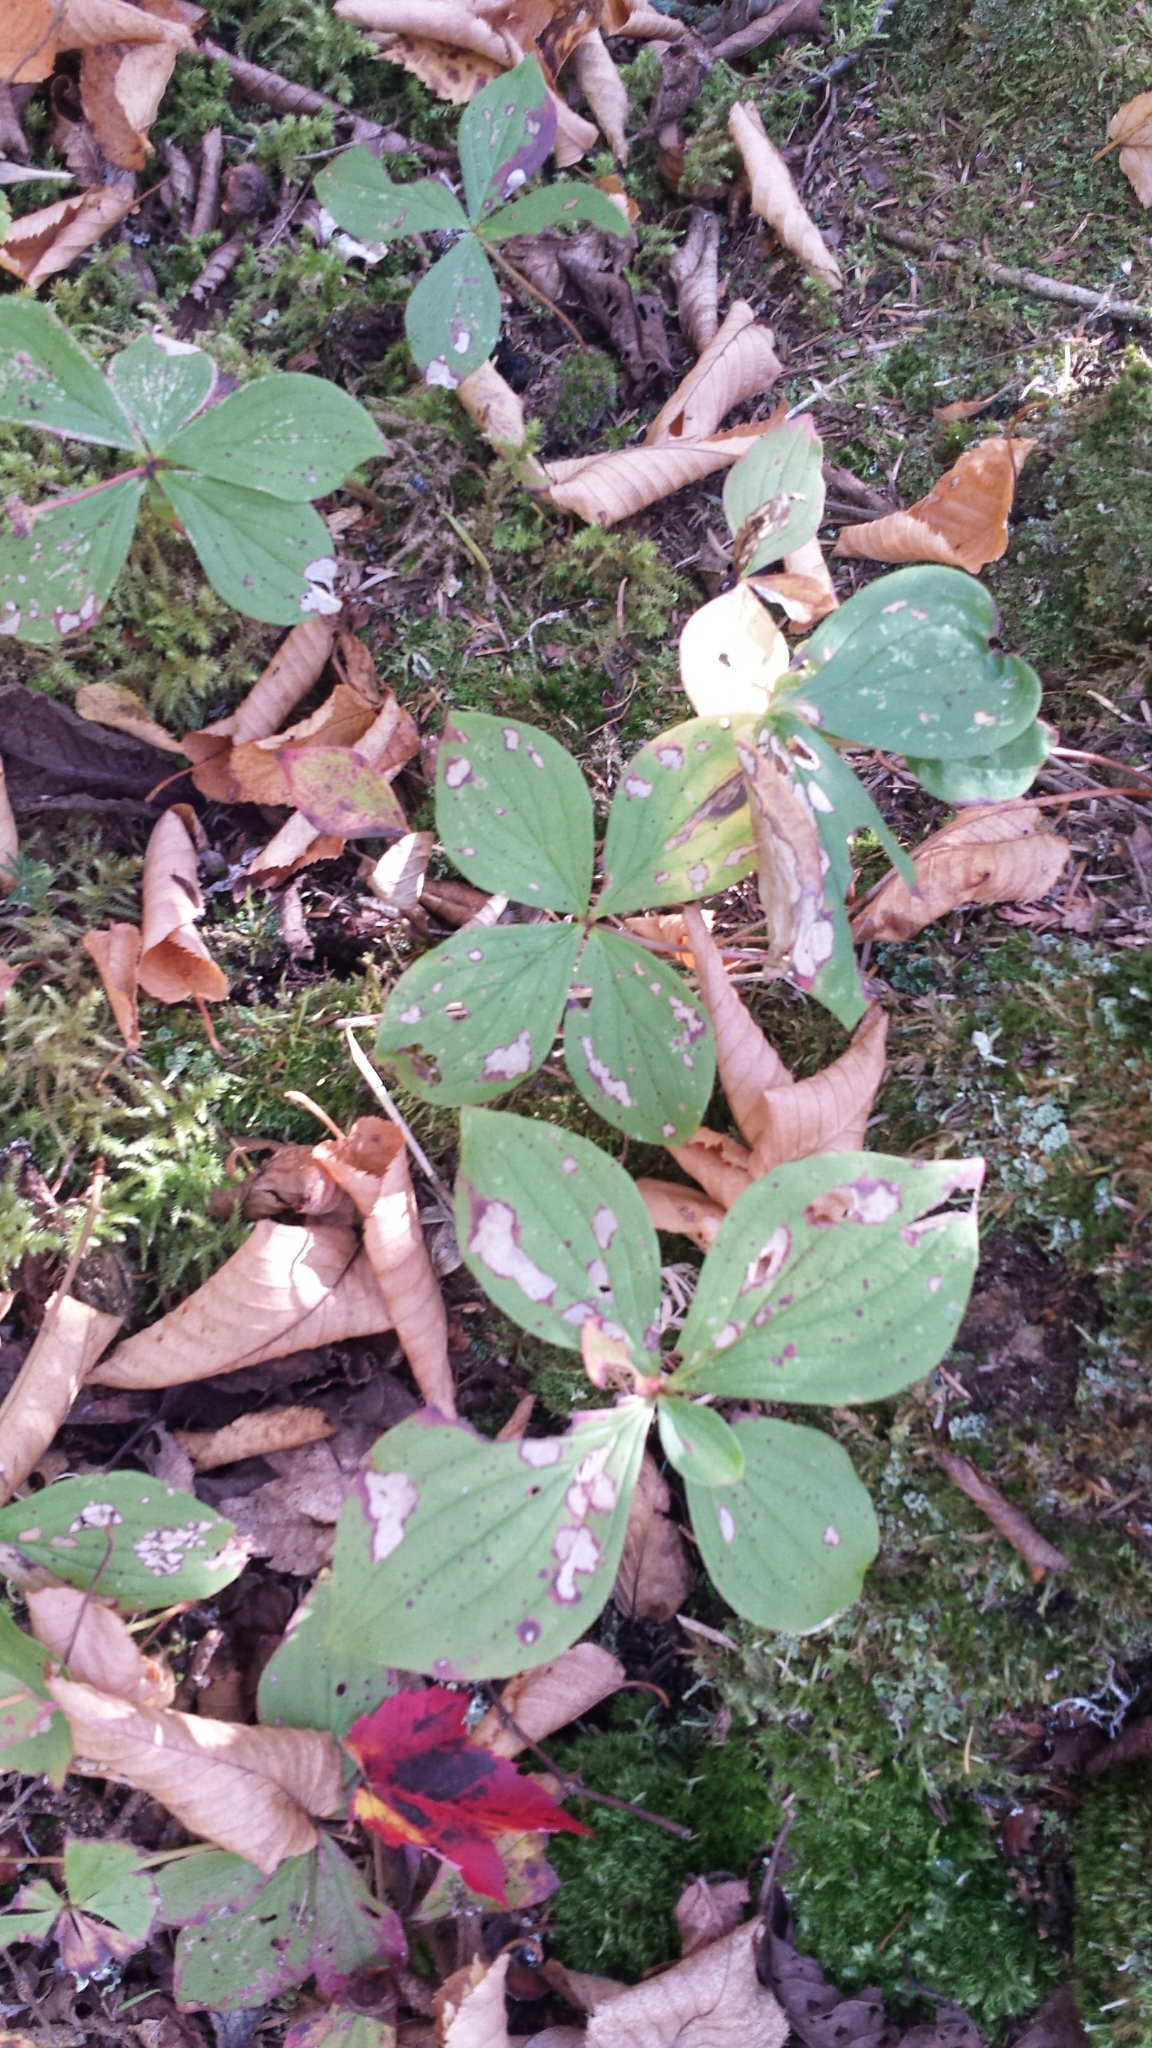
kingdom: Plantae
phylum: Tracheophyta
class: Magnoliopsida
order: Cornales
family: Cornaceae
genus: Cornus
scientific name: Cornus canadensis
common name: Creeping dogwood
